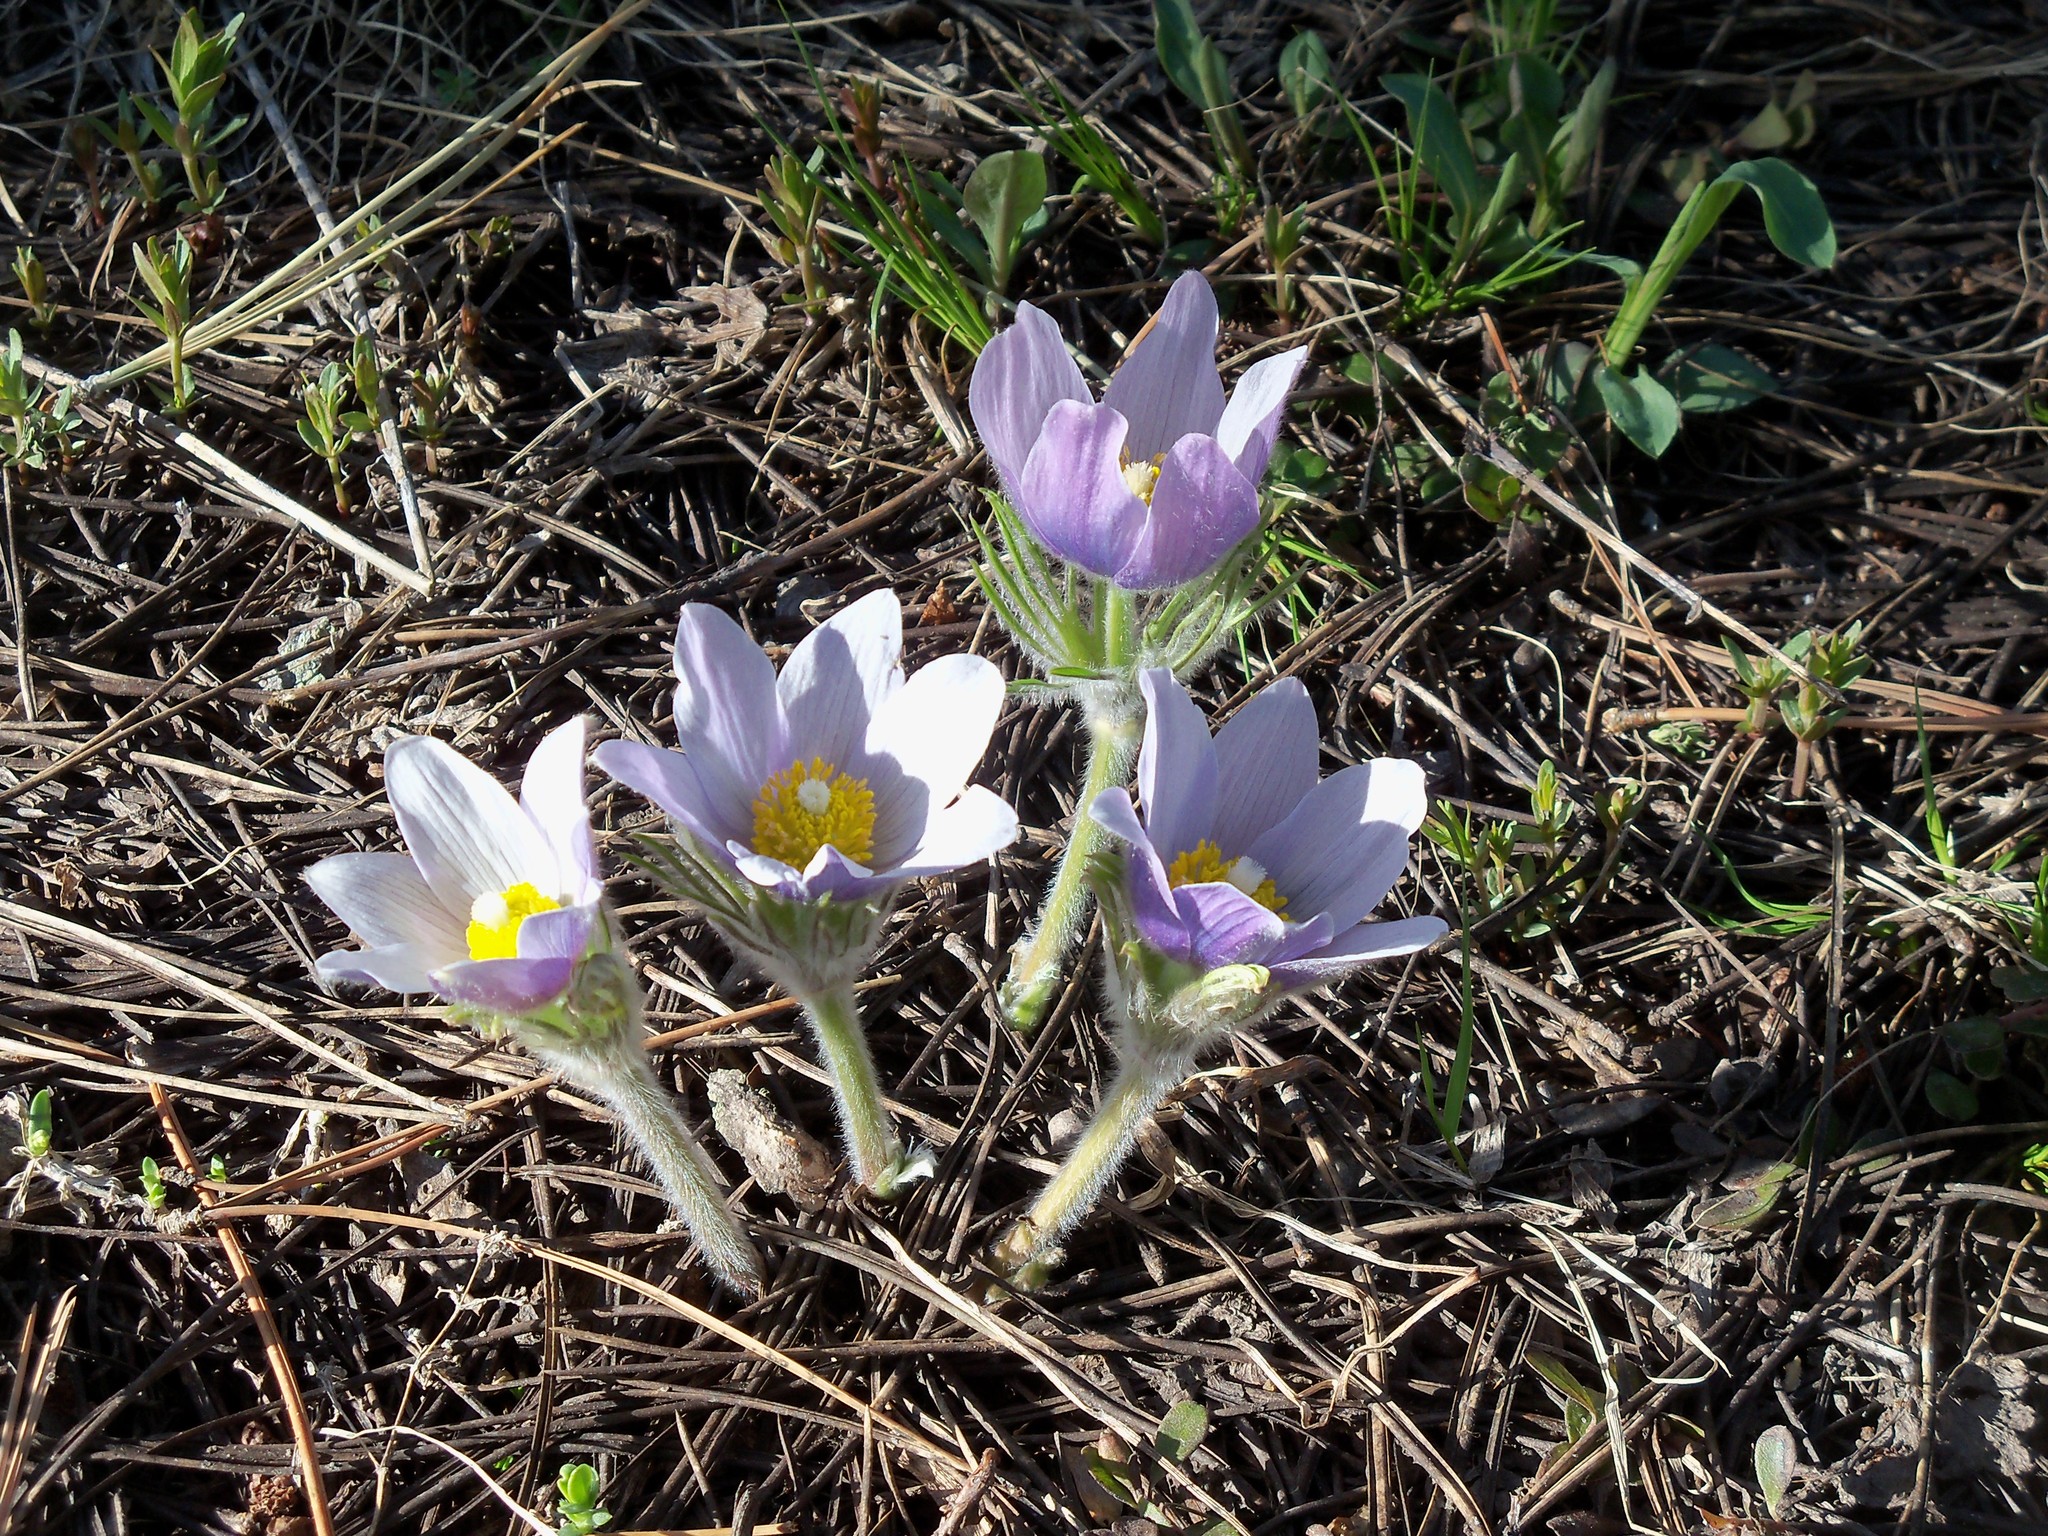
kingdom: Plantae
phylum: Tracheophyta
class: Magnoliopsida
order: Ranunculales
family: Ranunculaceae
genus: Pulsatilla
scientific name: Pulsatilla nuttalliana
